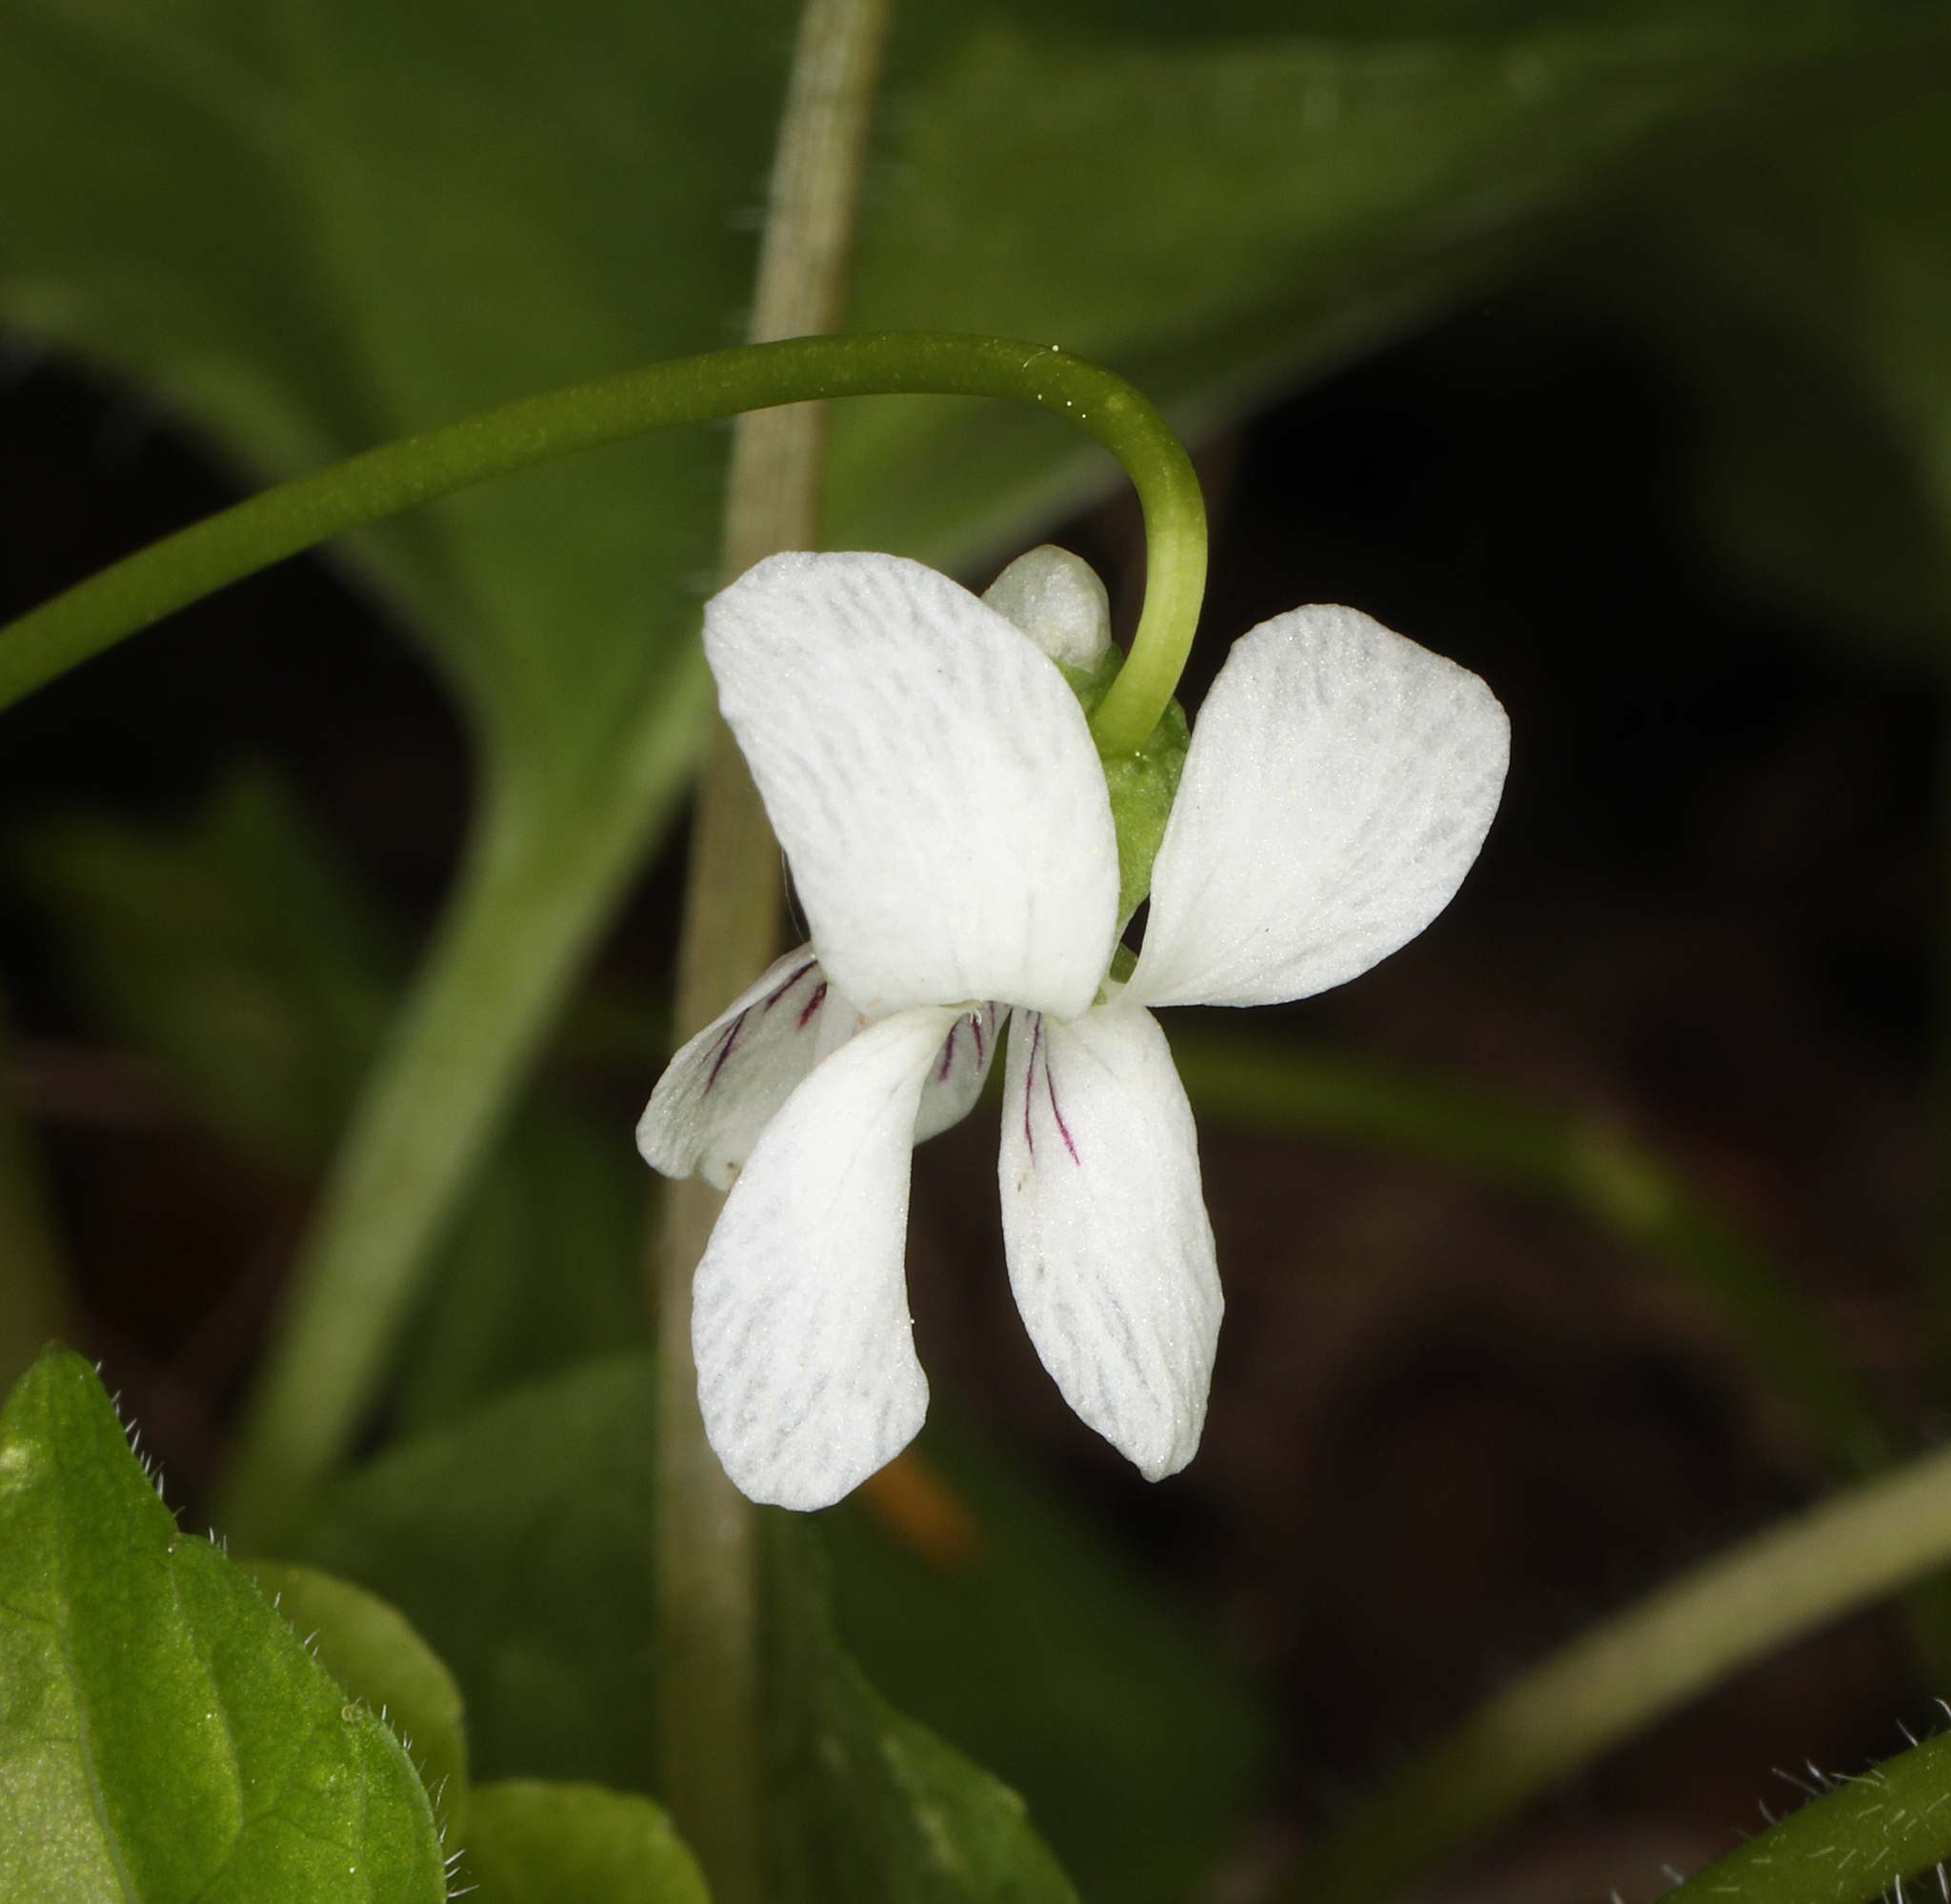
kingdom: Plantae
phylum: Tracheophyta
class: Magnoliopsida
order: Malpighiales
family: Violaceae
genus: Viola
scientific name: Viola macloskeyi
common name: Macloskey's violet
